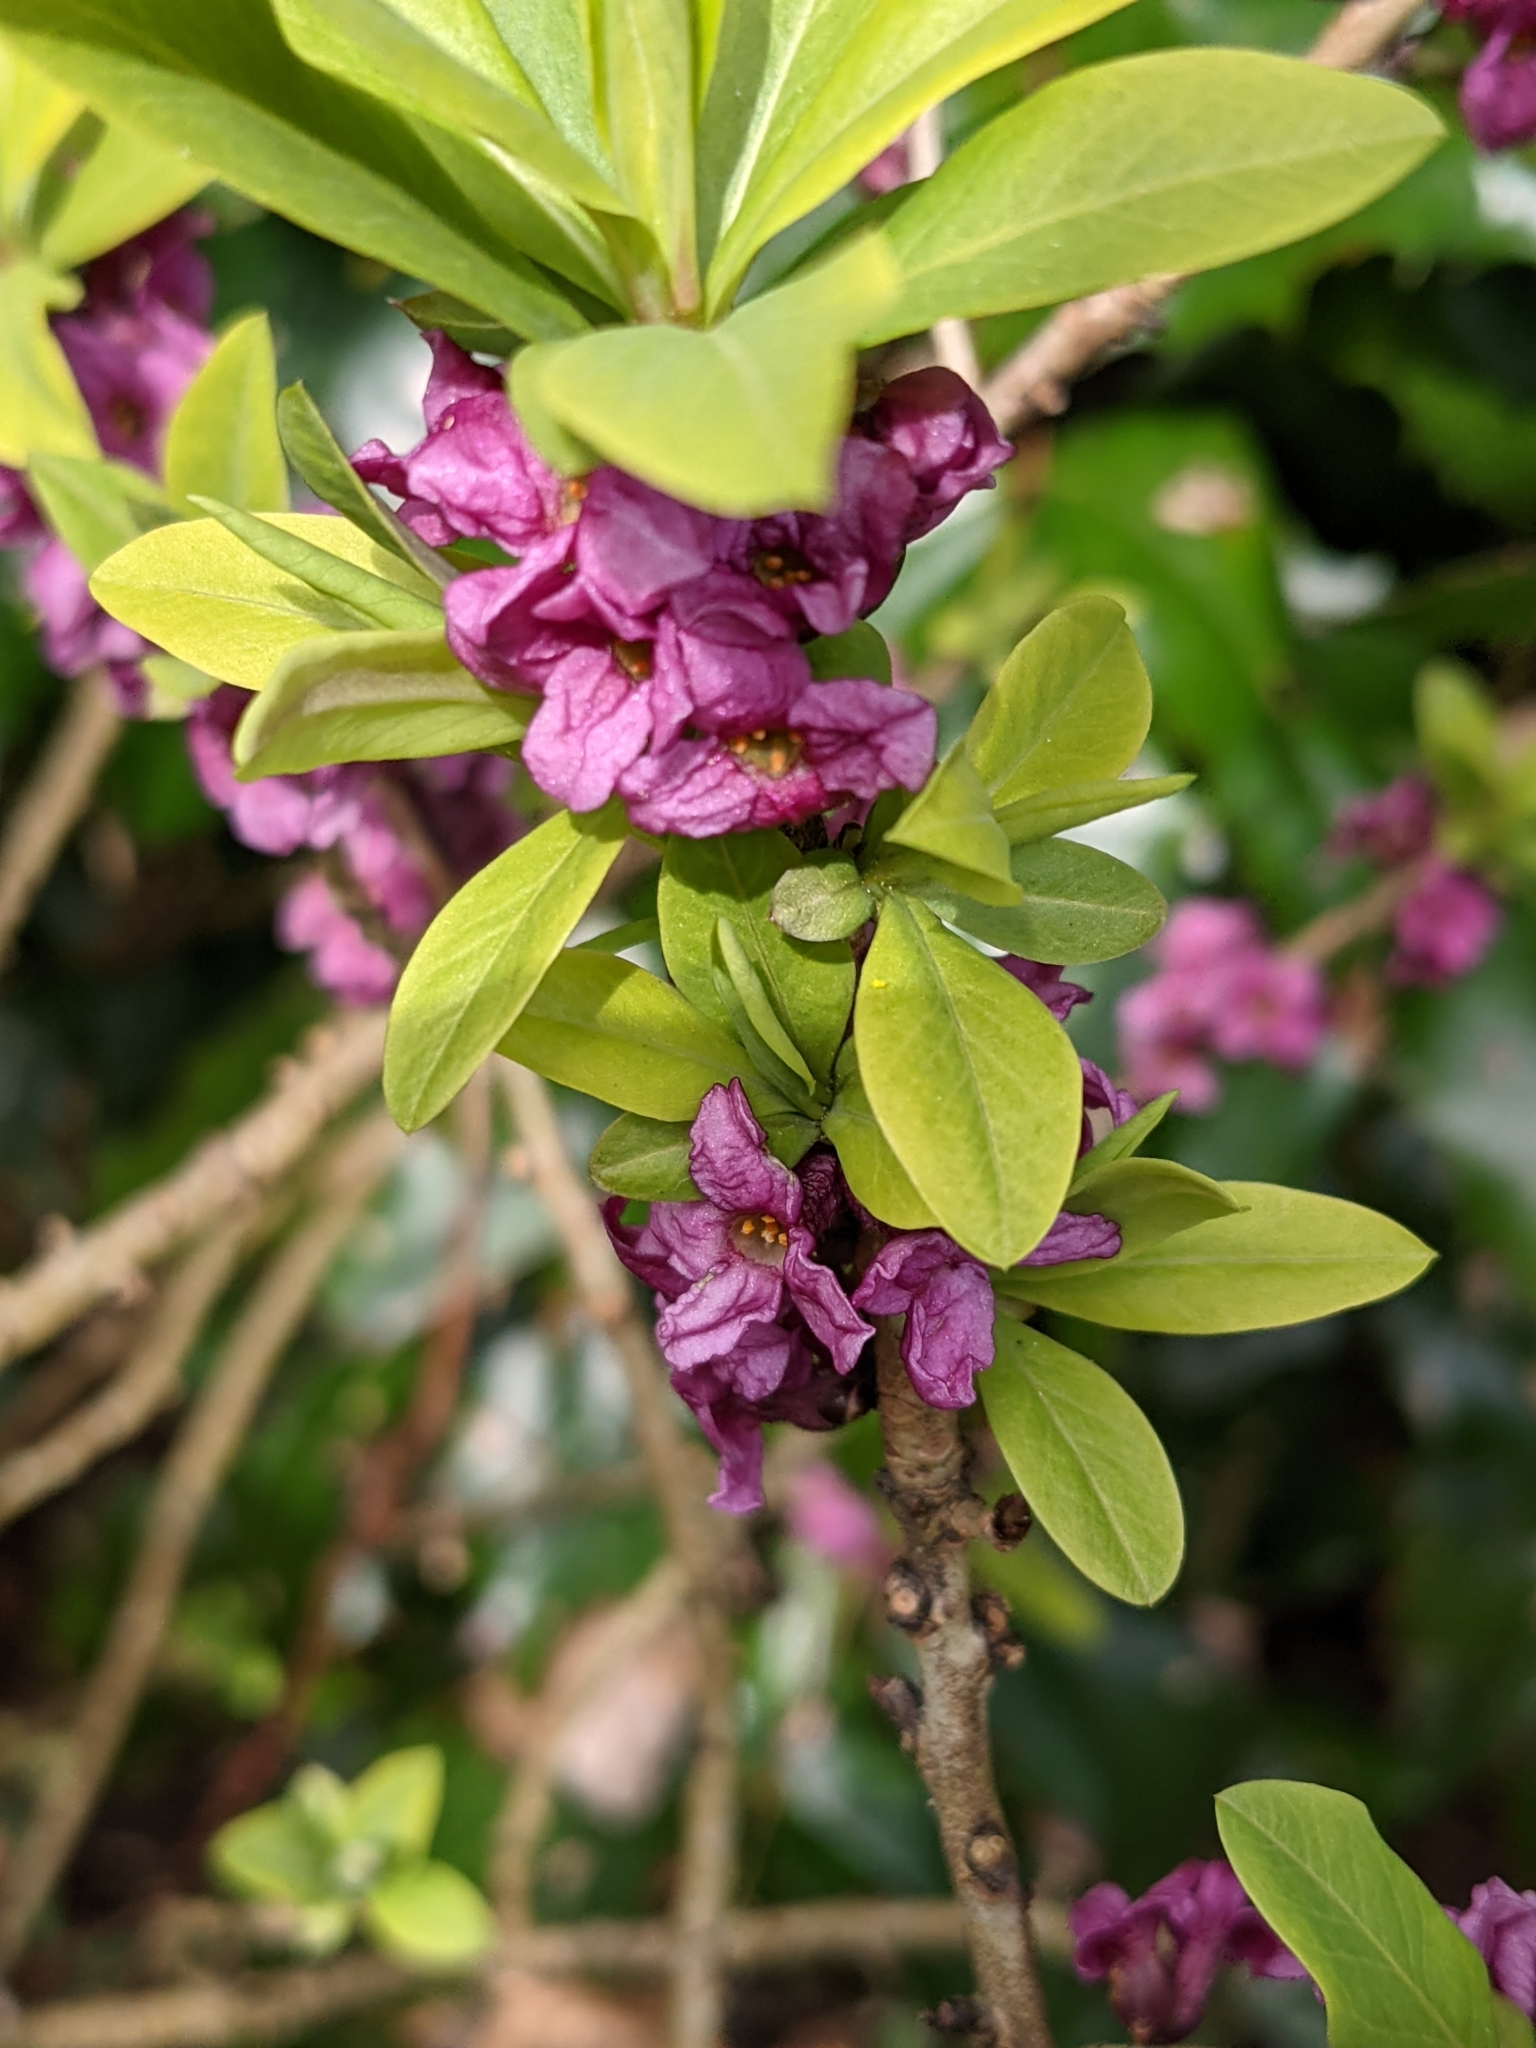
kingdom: Plantae
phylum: Tracheophyta
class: Magnoliopsida
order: Malvales
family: Thymelaeaceae
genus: Daphne
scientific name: Daphne mezereum
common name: Mezereon
